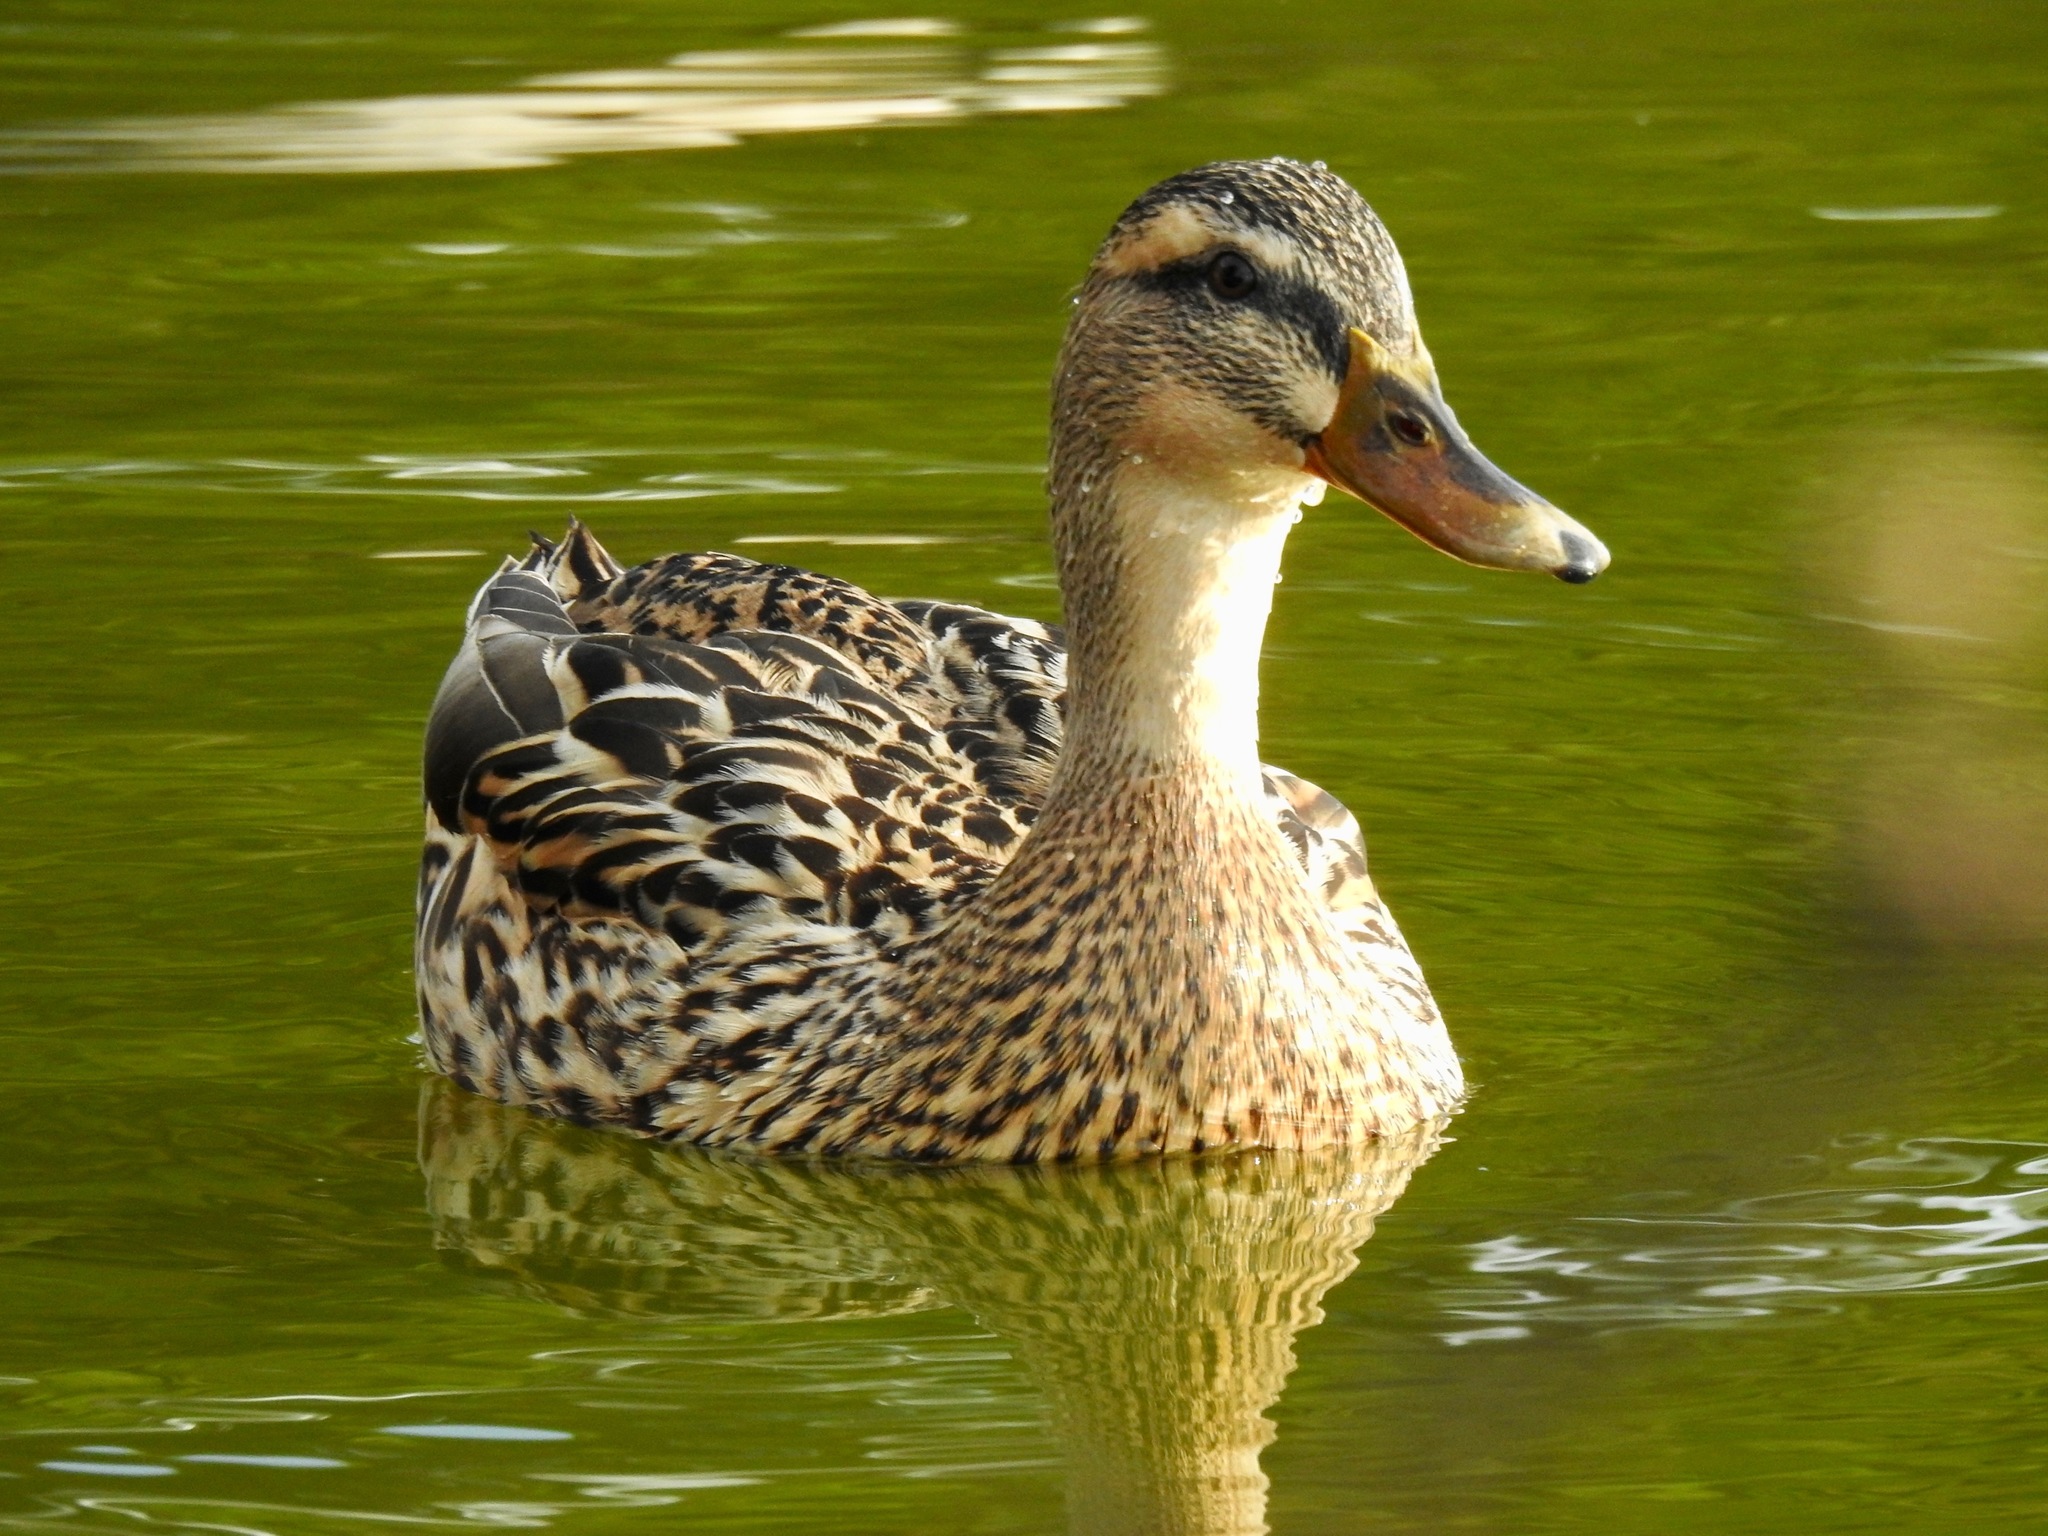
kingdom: Animalia
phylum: Chordata
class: Aves
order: Anseriformes
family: Anatidae
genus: Anas
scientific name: Anas platyrhynchos
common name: Mallard
